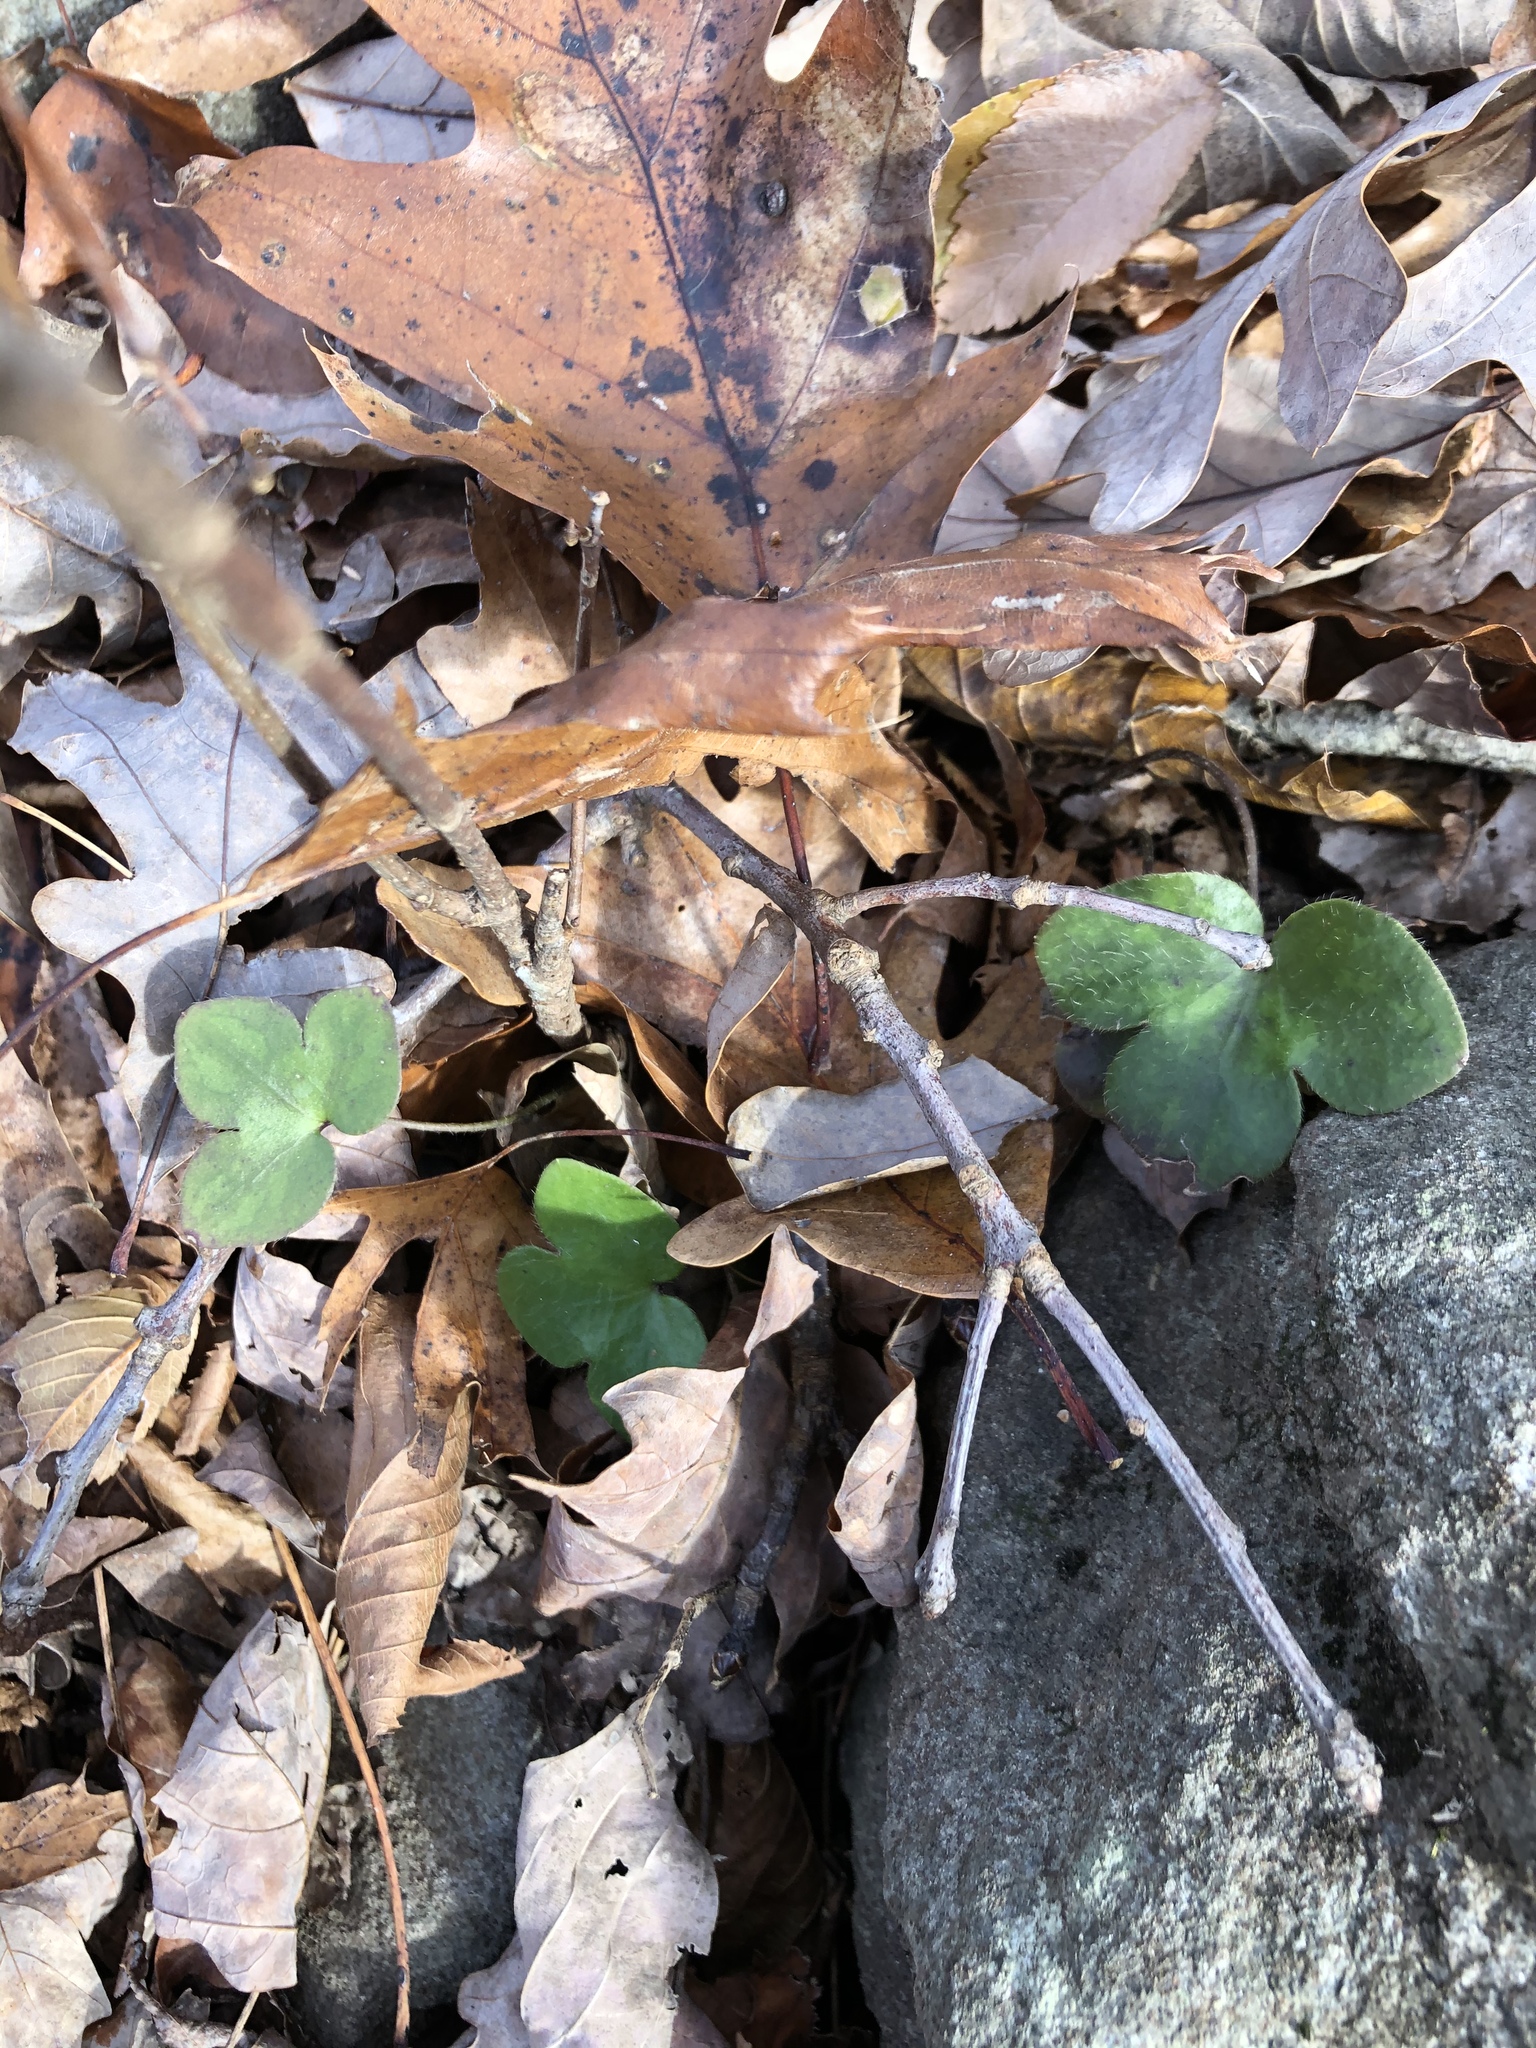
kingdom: Plantae
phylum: Tracheophyta
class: Magnoliopsida
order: Ranunculales
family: Ranunculaceae
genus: Hepatica
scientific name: Hepatica americana
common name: American hepatica
